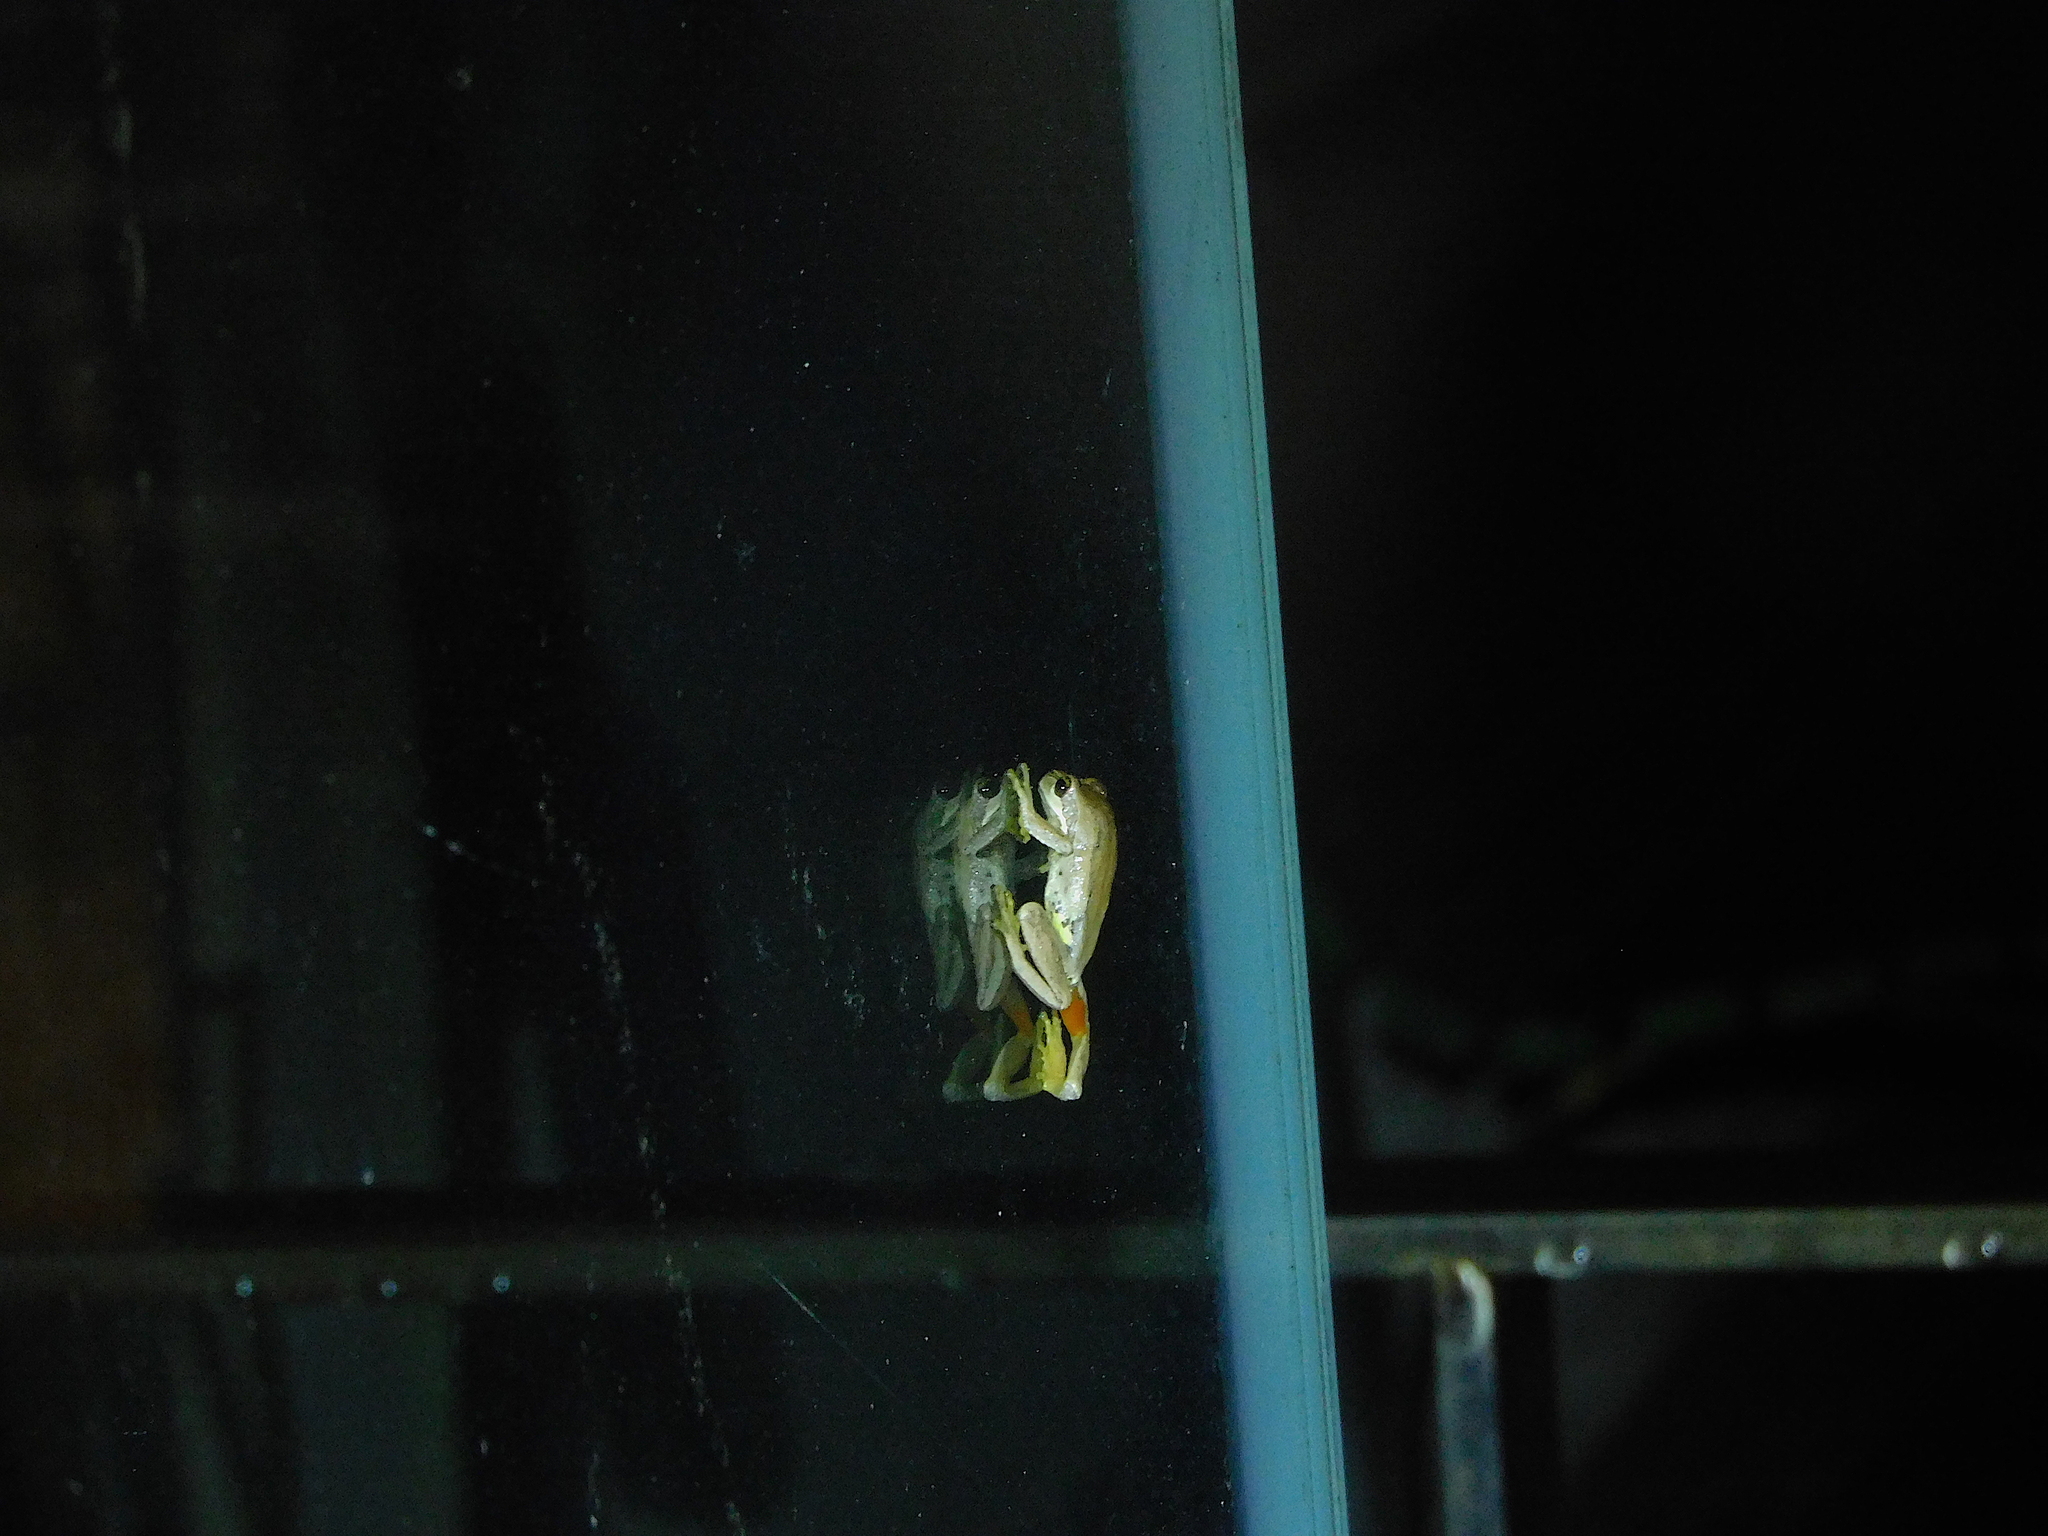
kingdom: Animalia
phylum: Chordata
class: Amphibia
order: Anura
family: Pelodryadidae
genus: Litoria
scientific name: Litoria ewingii
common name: Southern brown tree frog
